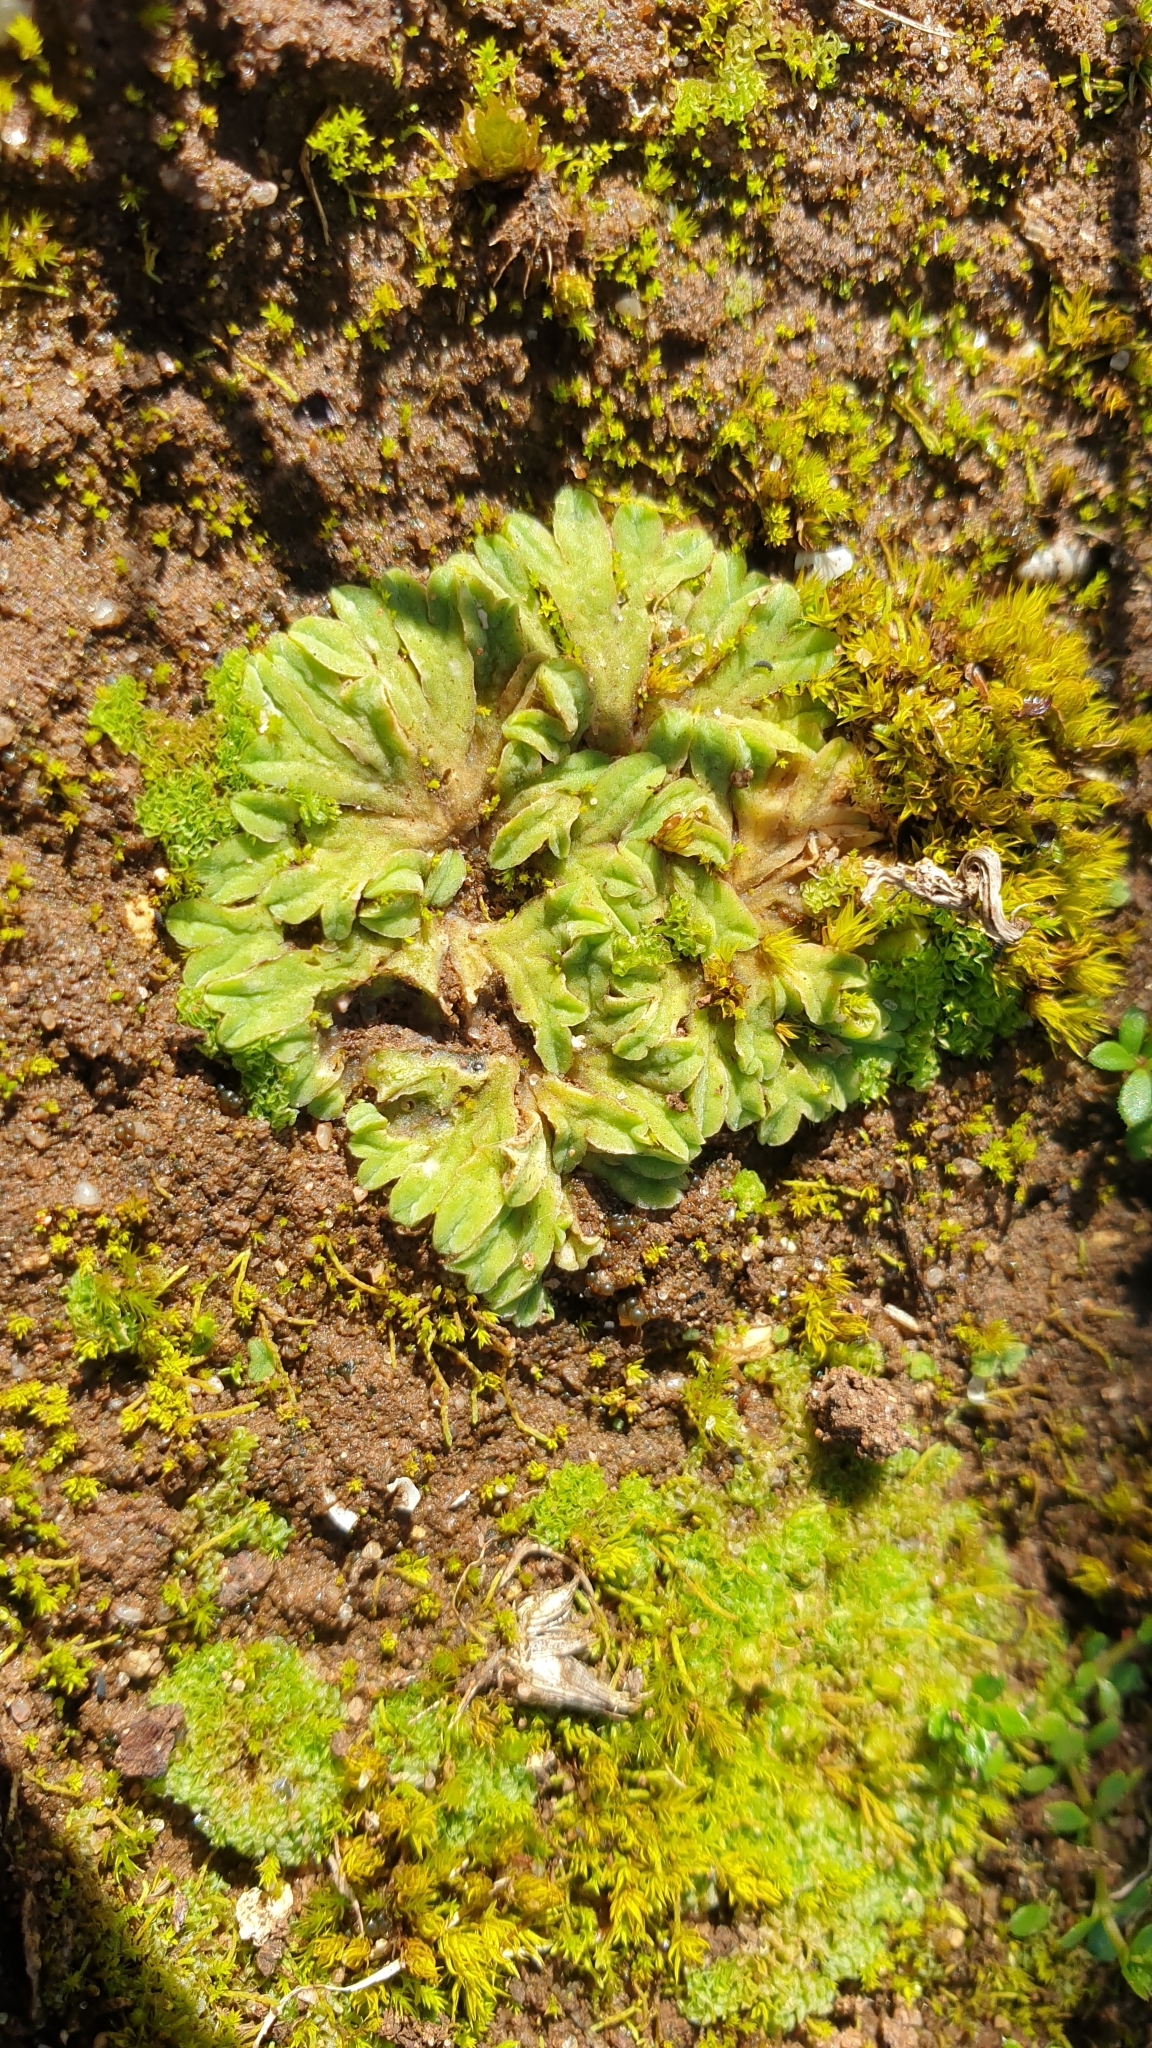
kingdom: Plantae
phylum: Marchantiophyta
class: Marchantiopsida
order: Marchantiales
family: Ricciaceae
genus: Riccia
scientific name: Riccia sorocarpa
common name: Common crystalwort
